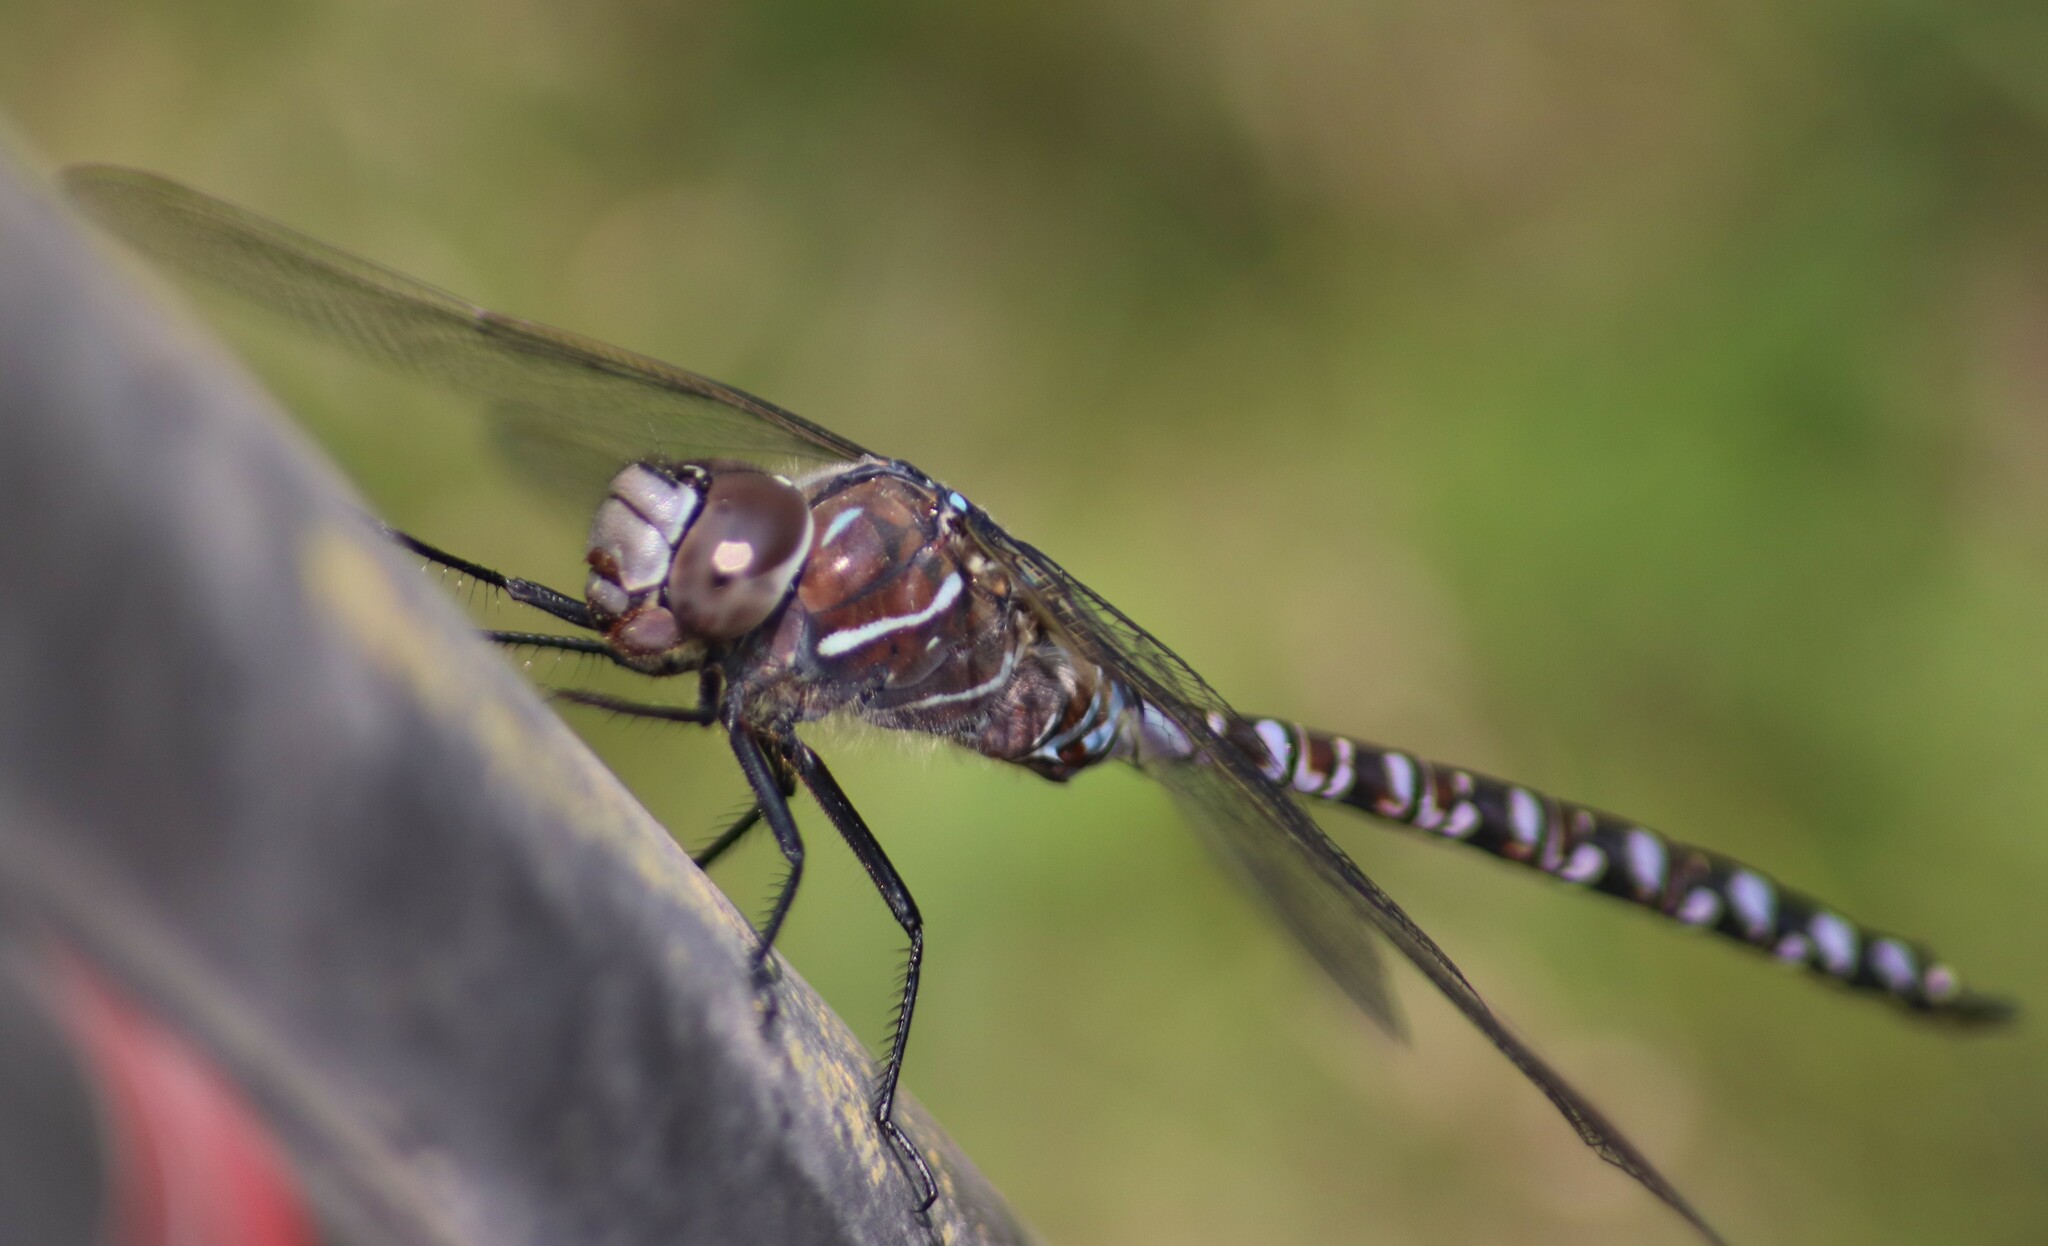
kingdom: Animalia
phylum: Arthropoda
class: Insecta
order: Odonata
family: Aeshnidae
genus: Aeshna
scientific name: Aeshna interrupta
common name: Variable darner
